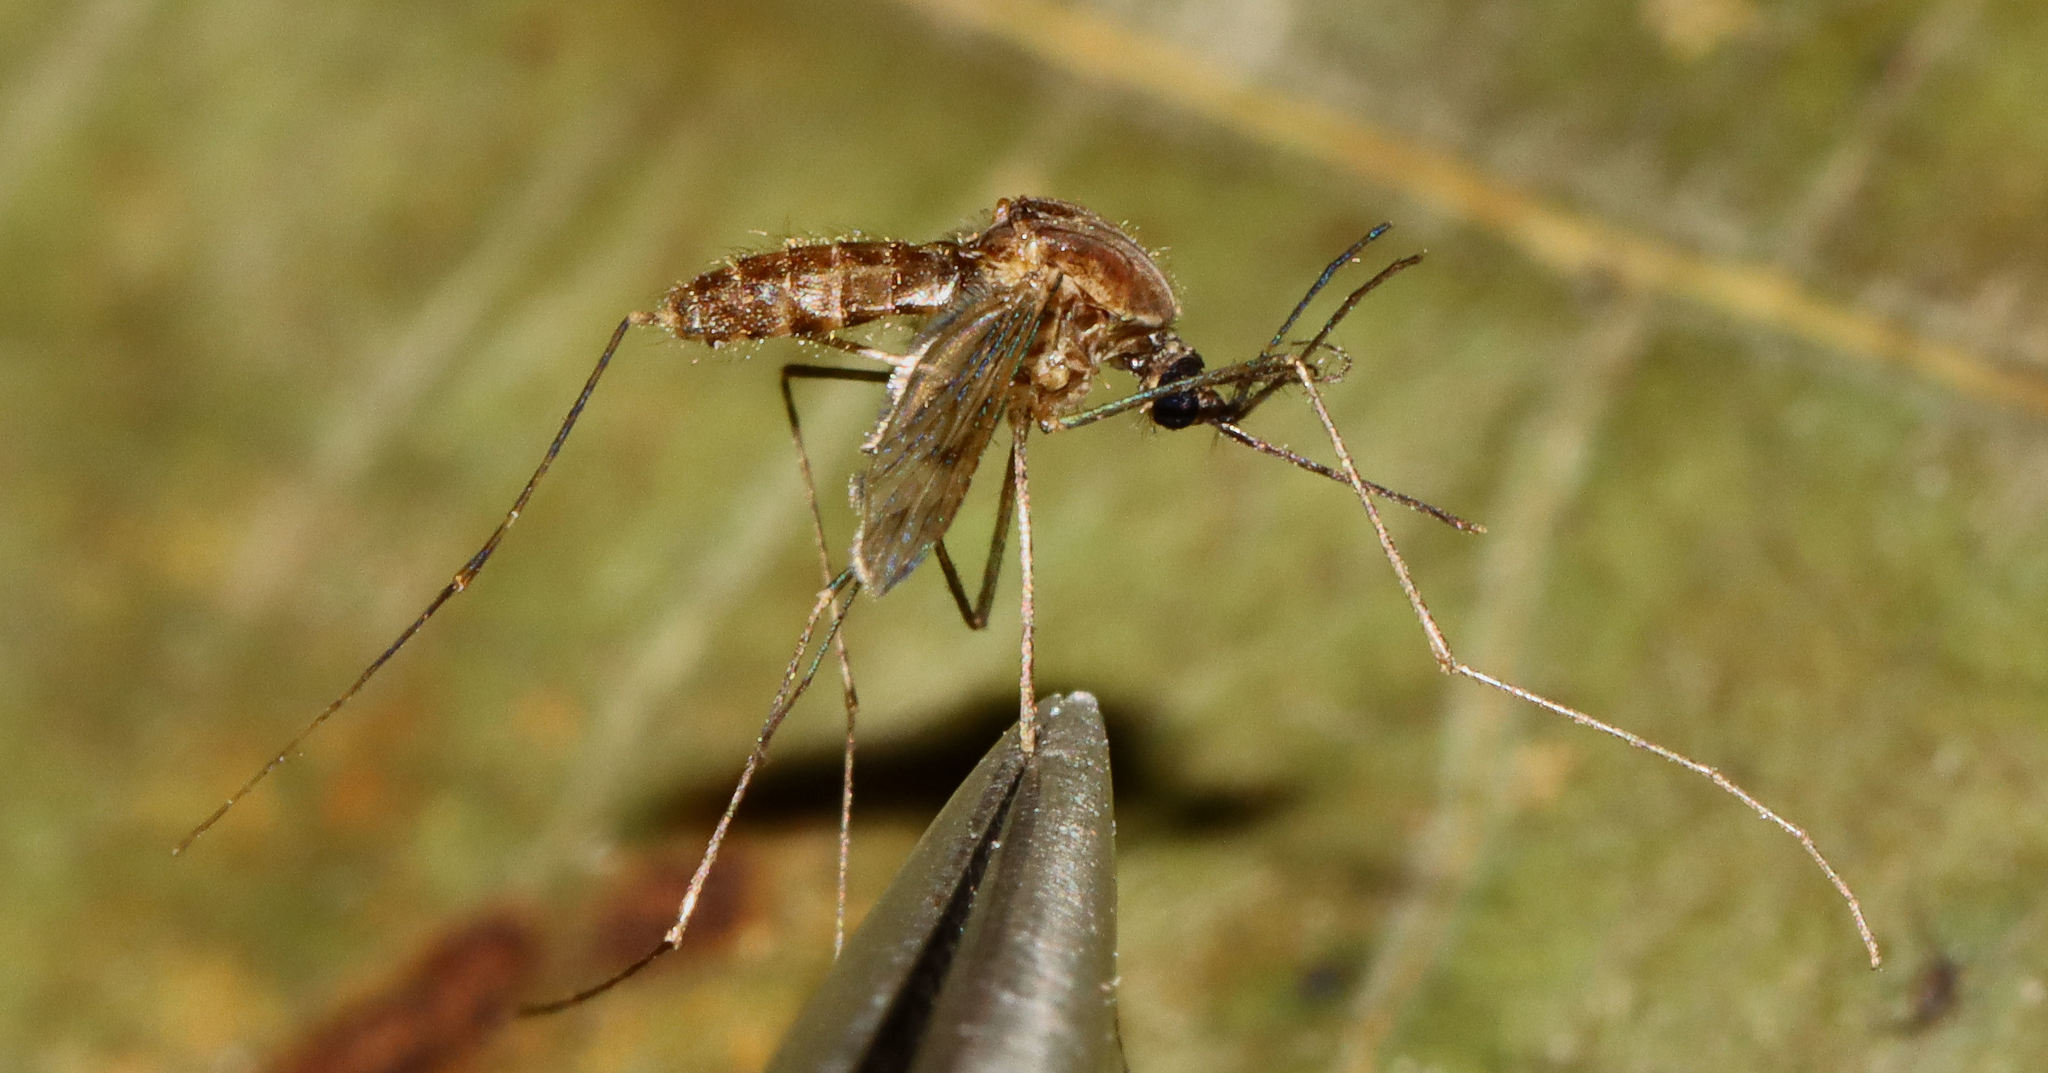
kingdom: Animalia
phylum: Arthropoda
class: Insecta
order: Diptera
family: Culicidae
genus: Anopheles
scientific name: Anopheles
